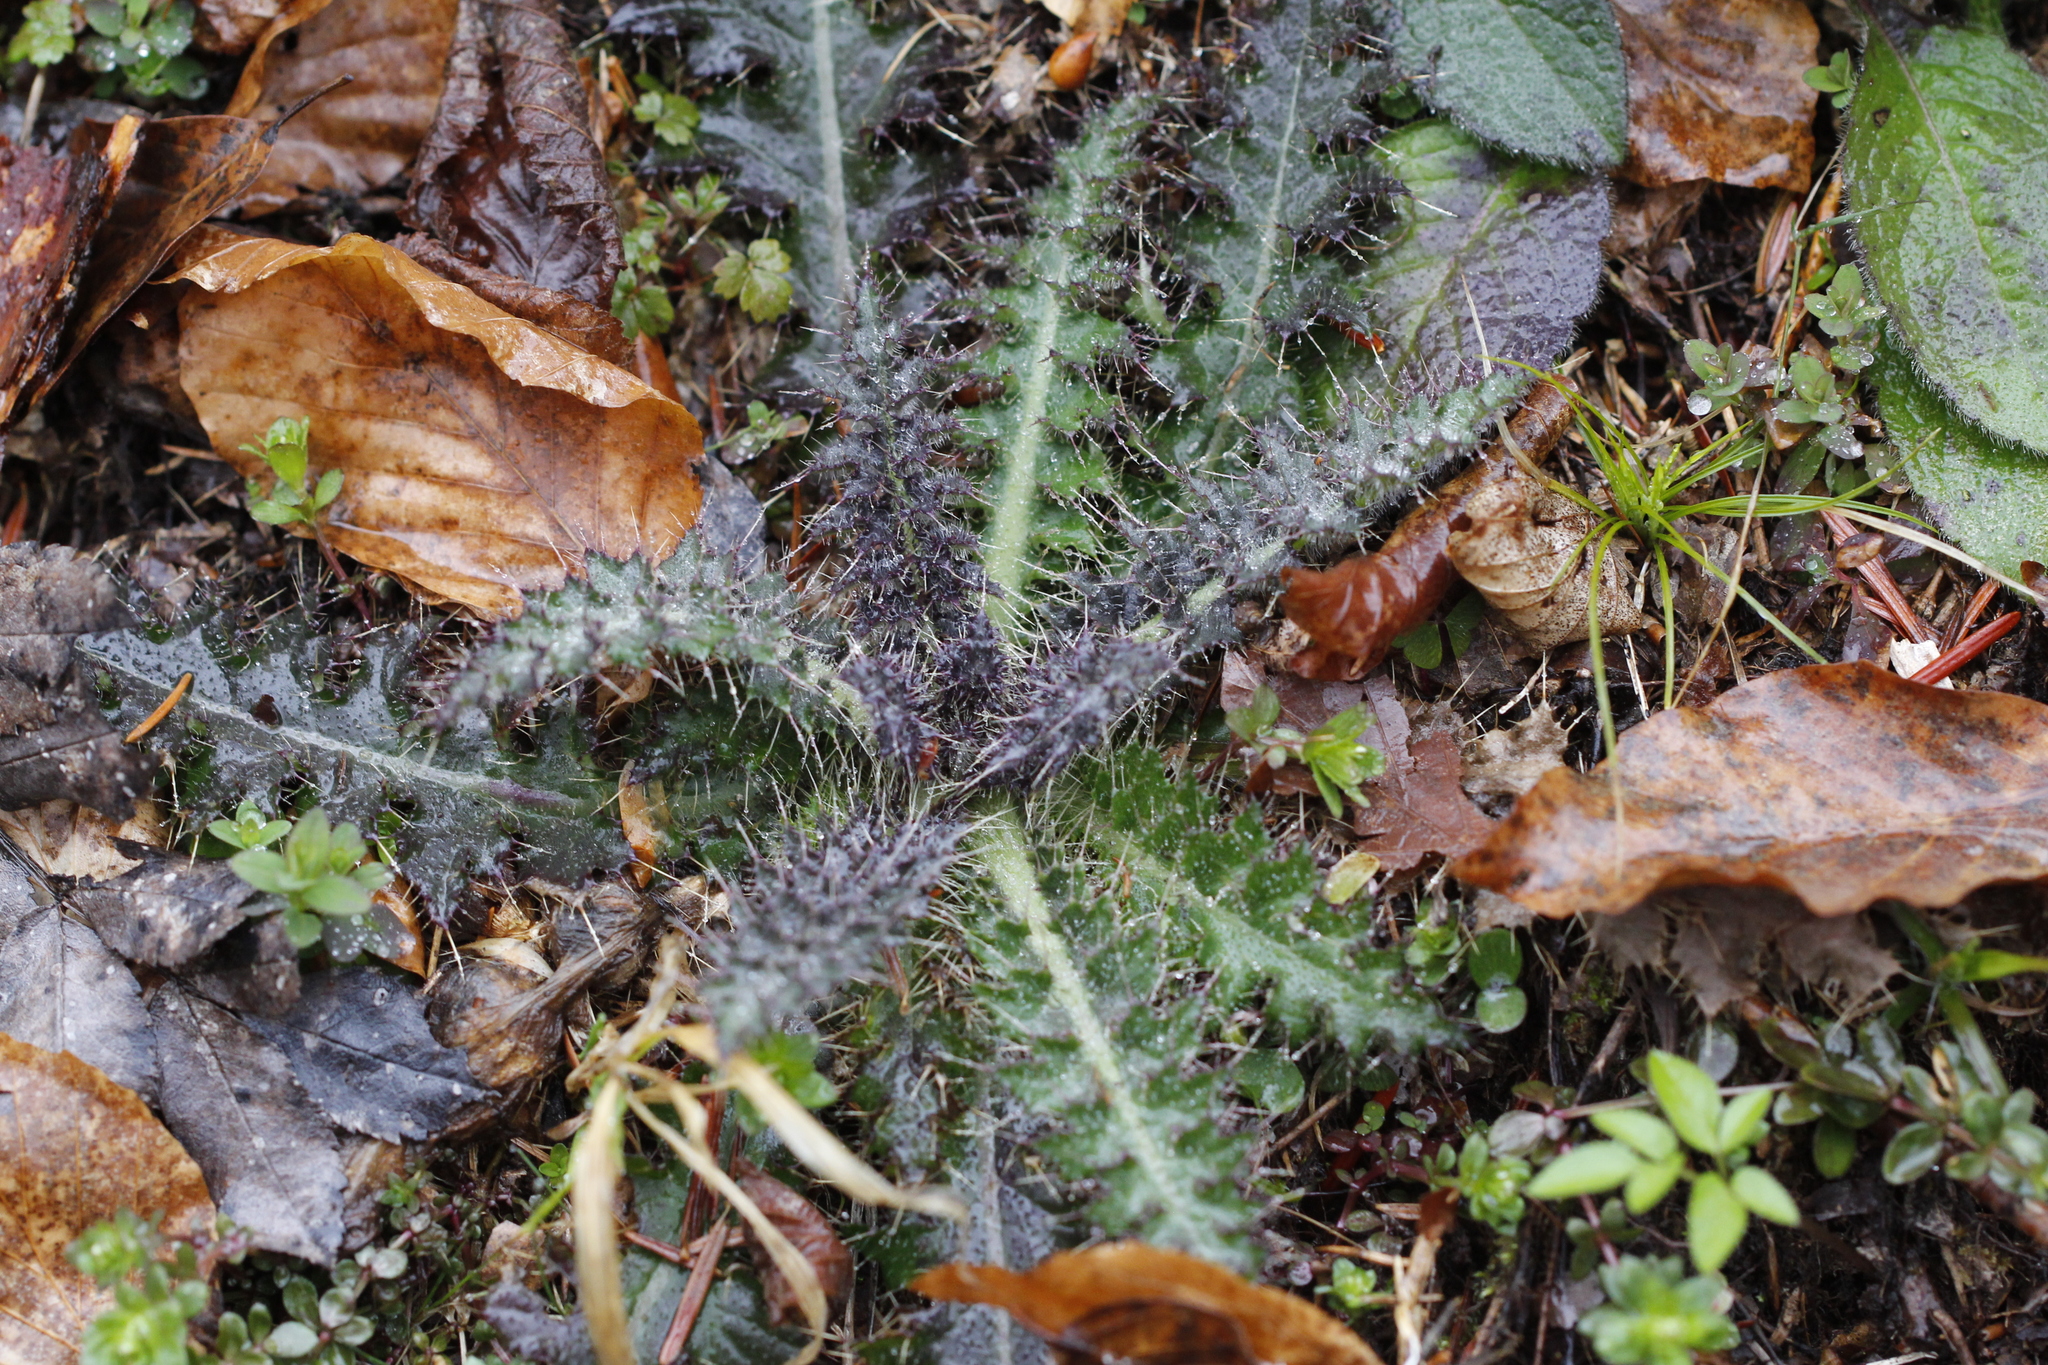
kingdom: Plantae
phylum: Tracheophyta
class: Magnoliopsida
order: Asterales
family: Asteraceae
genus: Cirsium
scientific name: Cirsium palustre
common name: Marsh thistle
